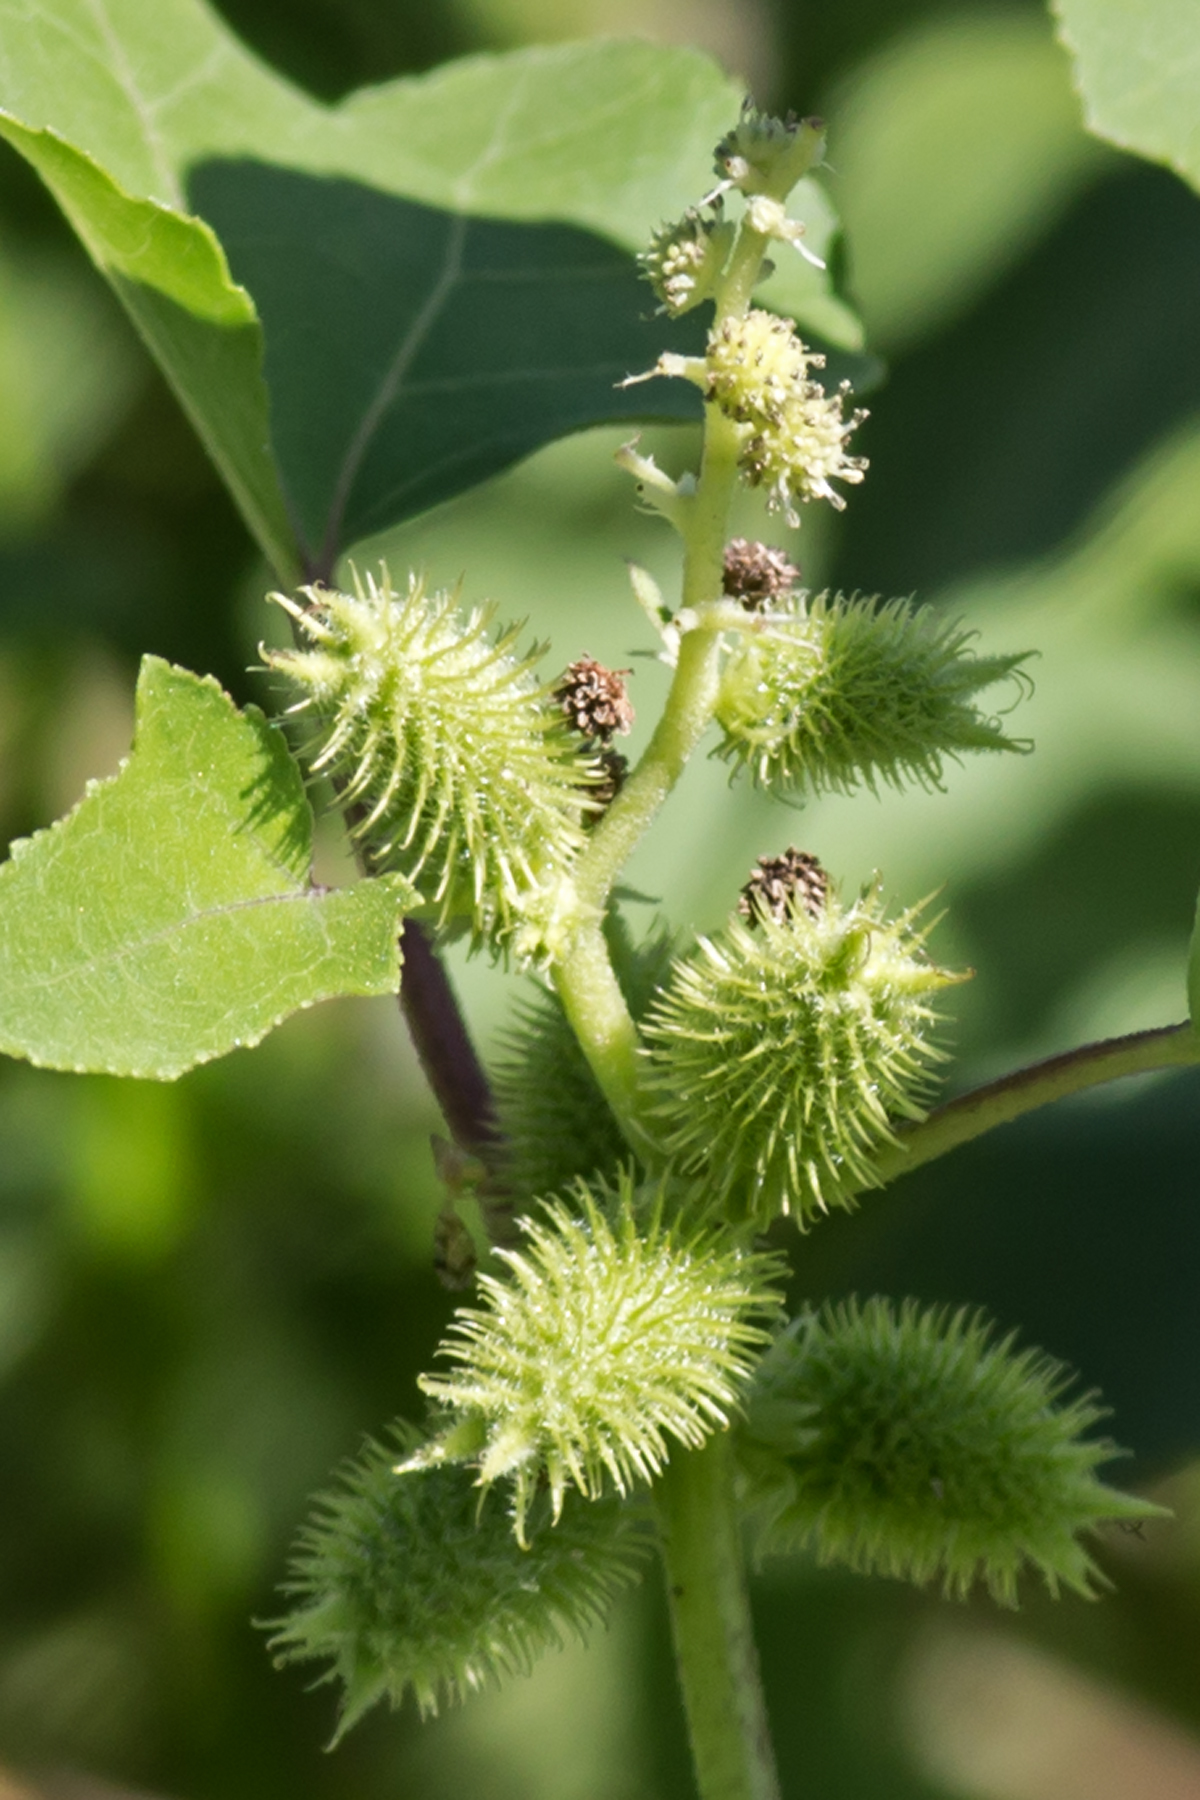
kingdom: Plantae
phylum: Tracheophyta
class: Magnoliopsida
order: Asterales
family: Asteraceae
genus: Xanthium
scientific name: Xanthium strumarium
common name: Rough cocklebur
